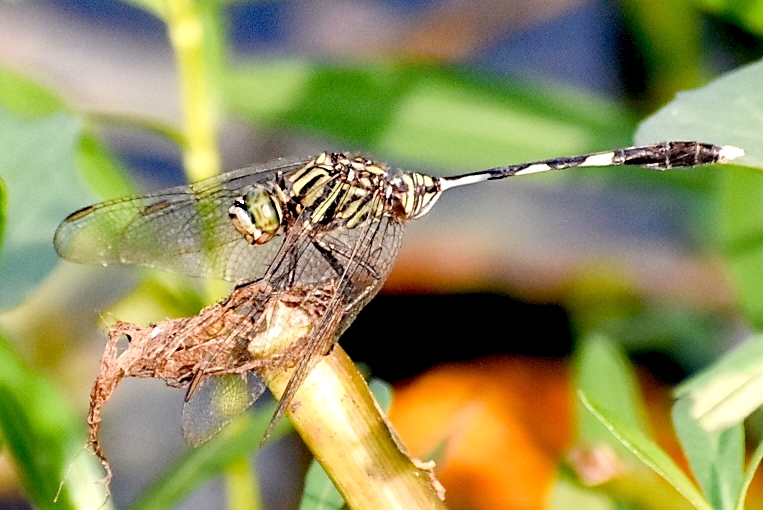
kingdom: Animalia
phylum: Arthropoda
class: Insecta
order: Odonata
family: Libellulidae
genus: Orthetrum
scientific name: Orthetrum sabina
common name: Slender skimmer
